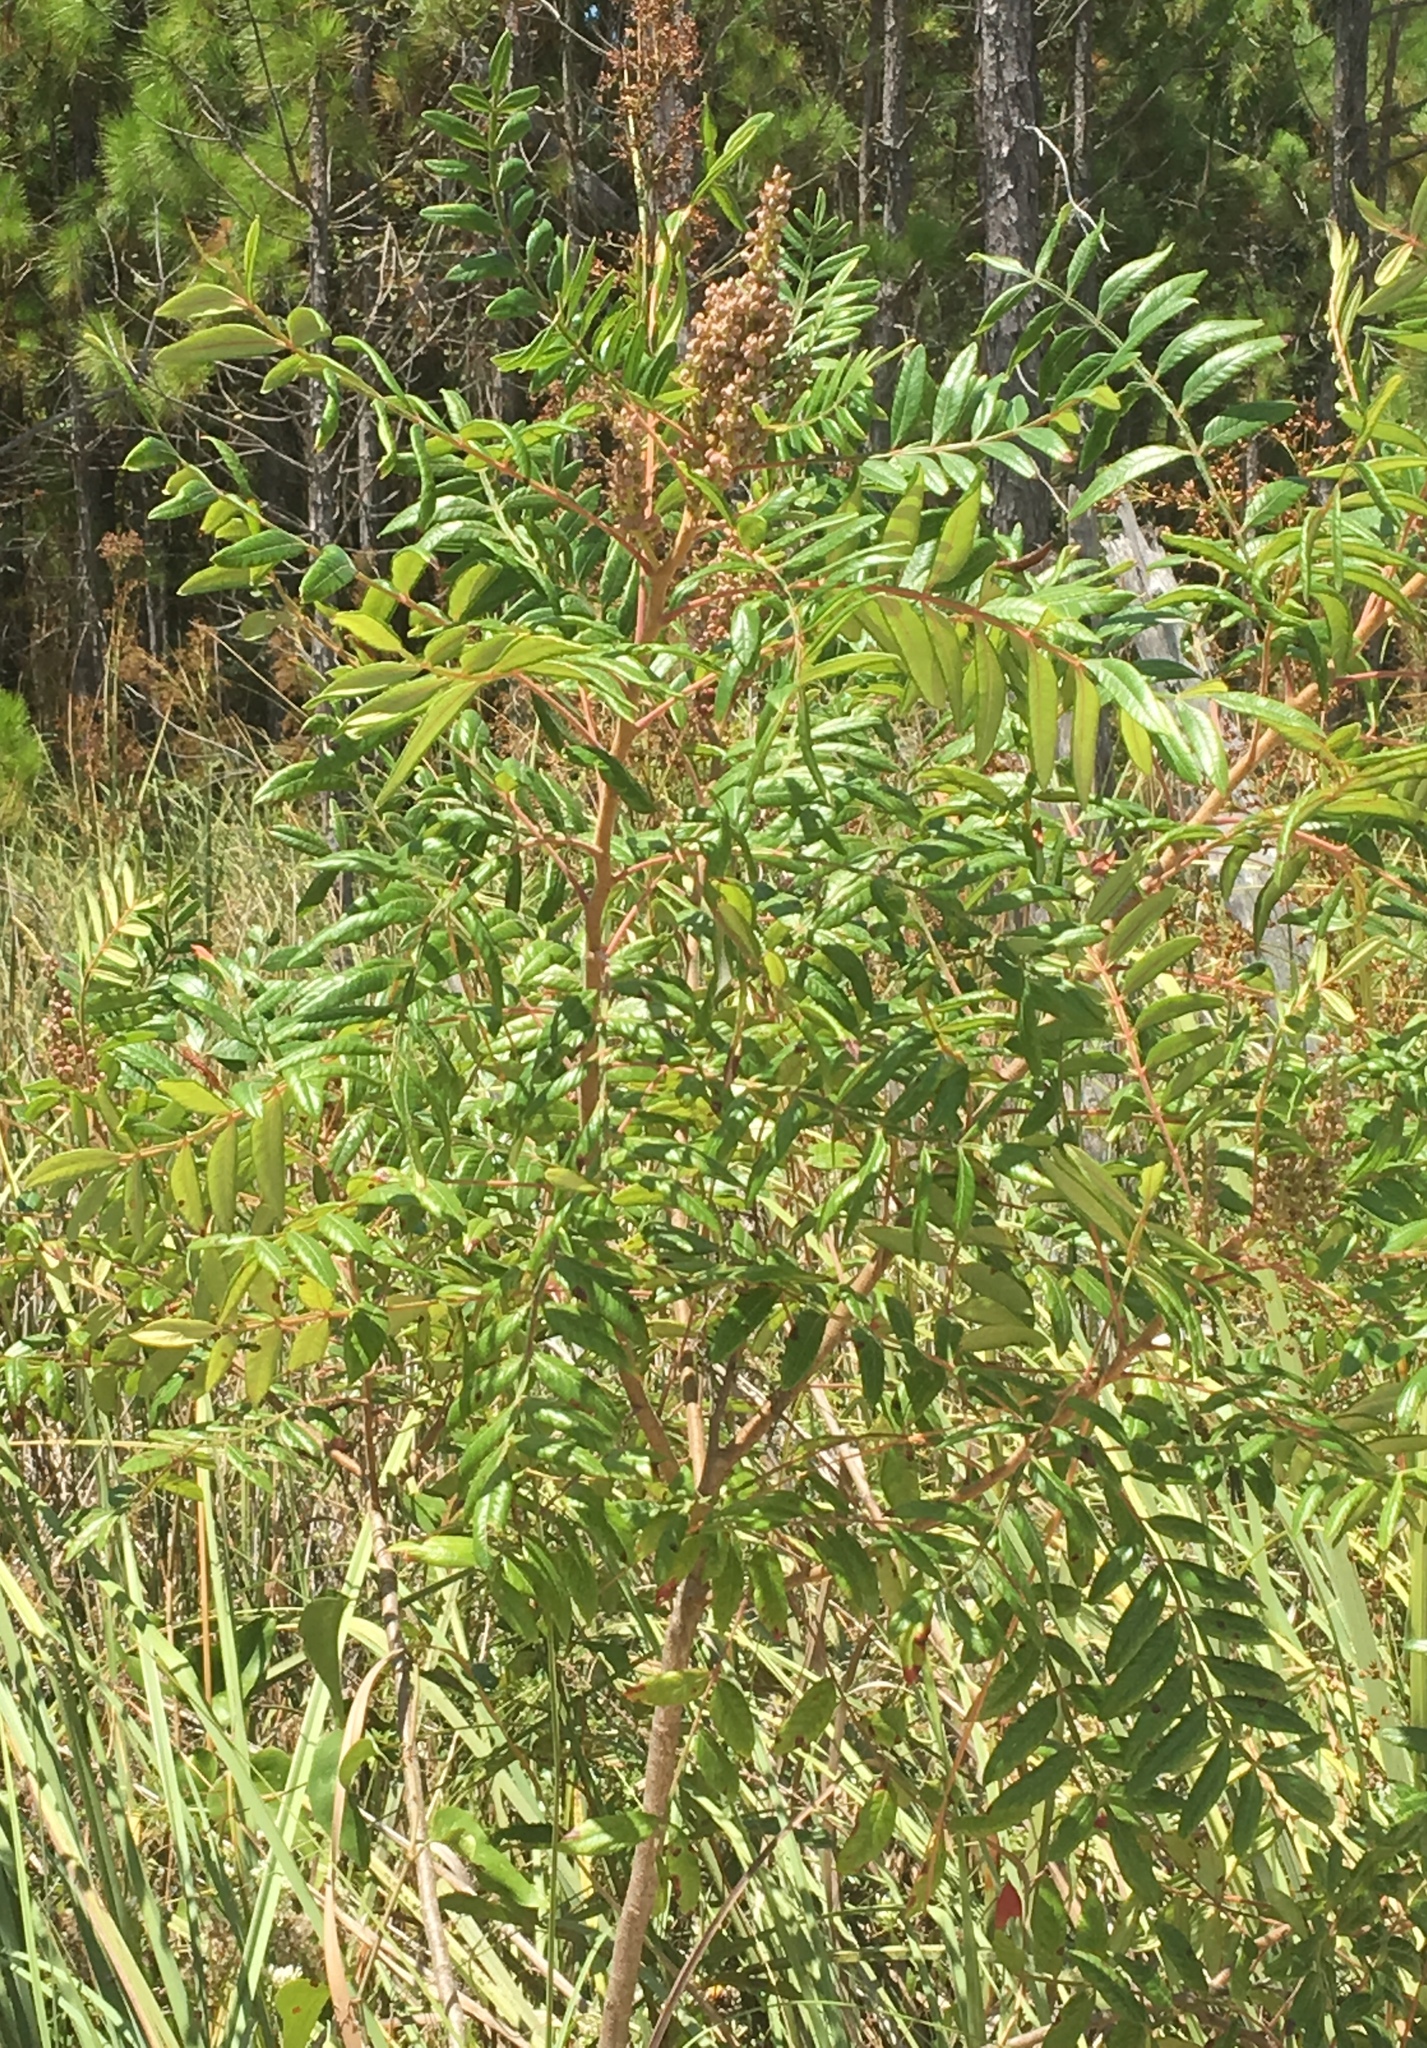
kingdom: Plantae
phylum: Tracheophyta
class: Magnoliopsida
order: Sapindales
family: Anacardiaceae
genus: Rhus
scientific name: Rhus copallina
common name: Shining sumac
